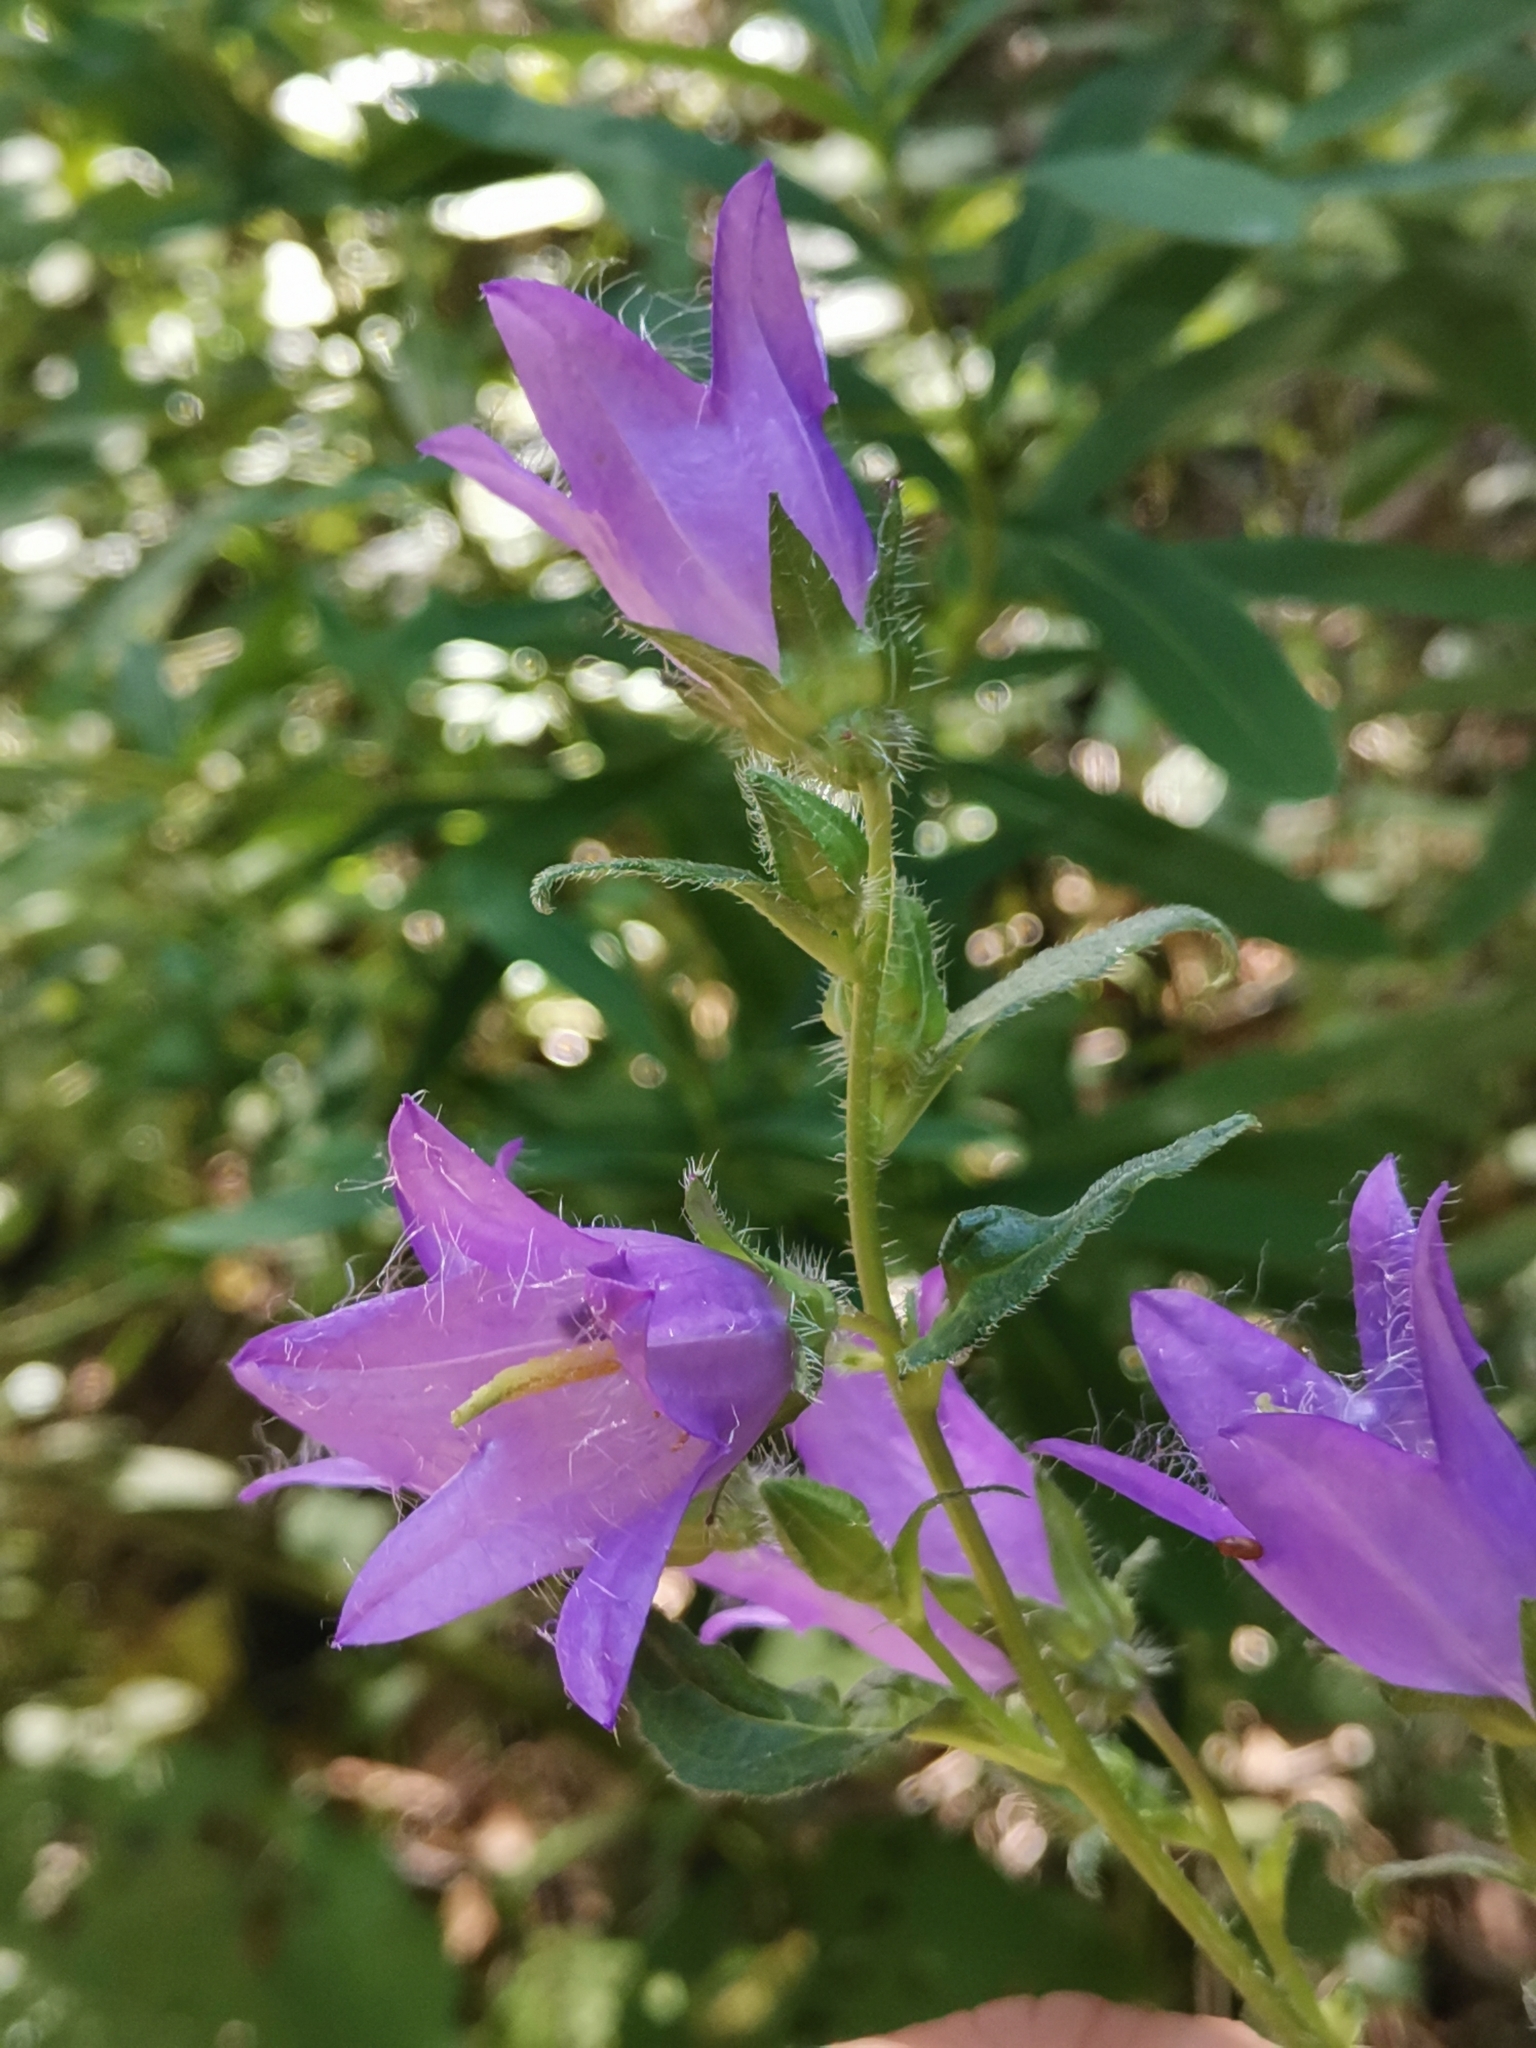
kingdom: Plantae
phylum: Tracheophyta
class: Magnoliopsida
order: Asterales
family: Campanulaceae
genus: Campanula
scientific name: Campanula trachelium
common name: Nettle-leaved bellflower
